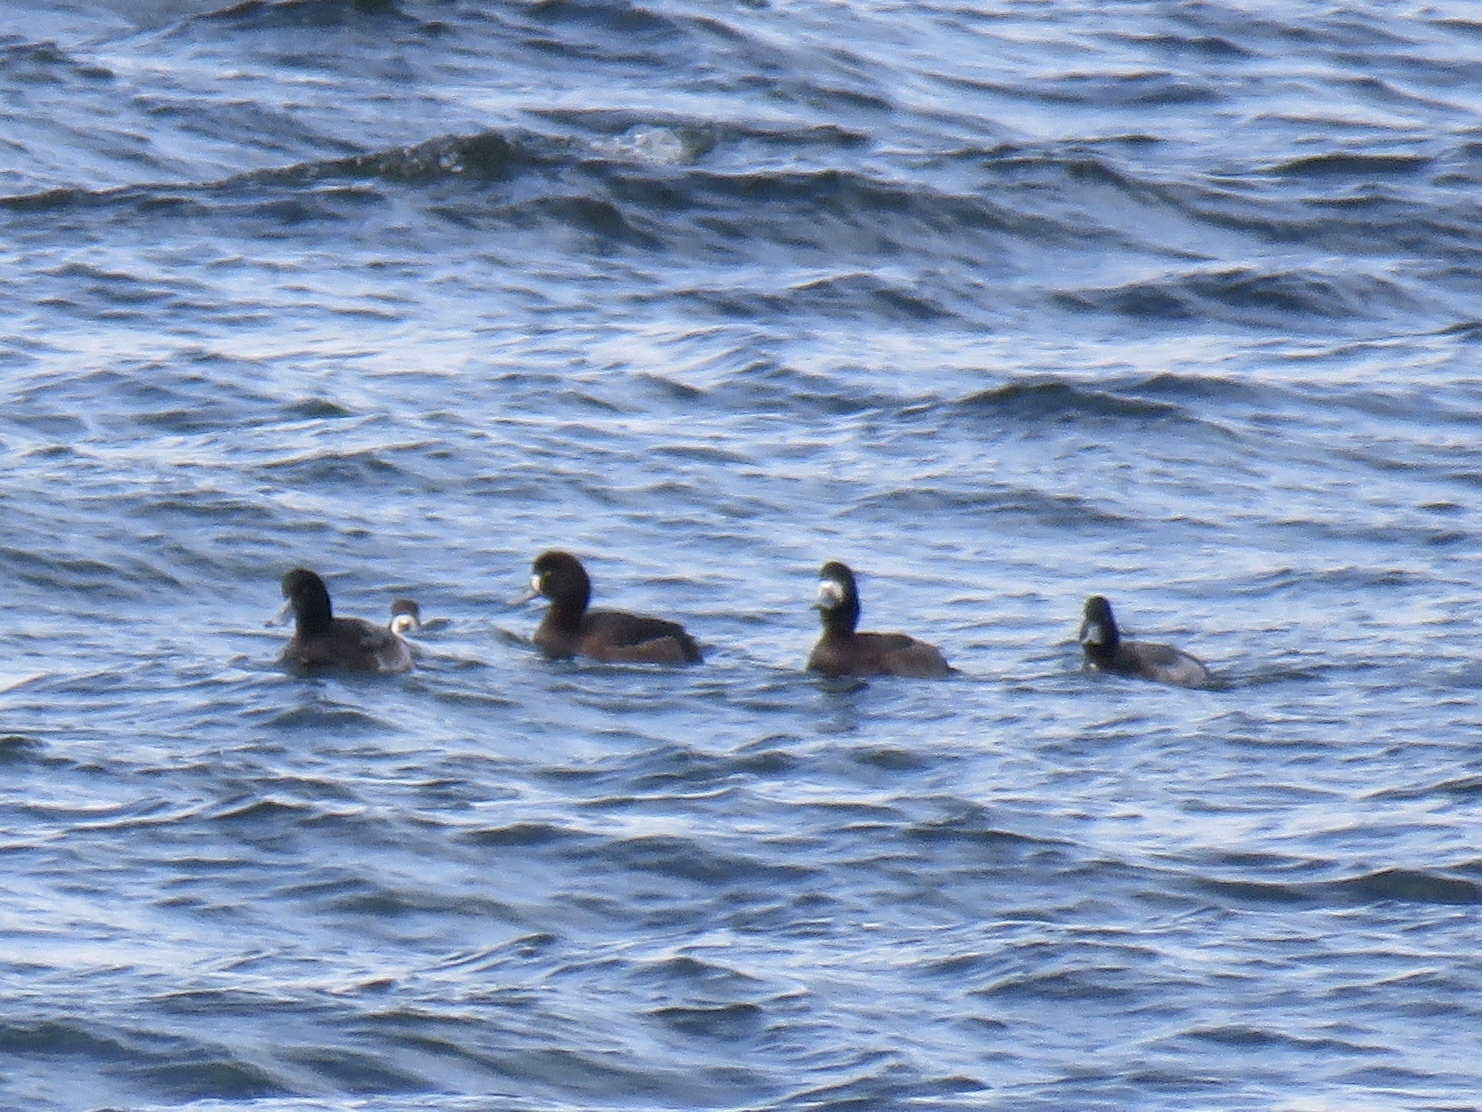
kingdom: Animalia
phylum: Chordata
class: Aves
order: Anseriformes
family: Anatidae
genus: Aythya
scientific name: Aythya marila
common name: Greater scaup
